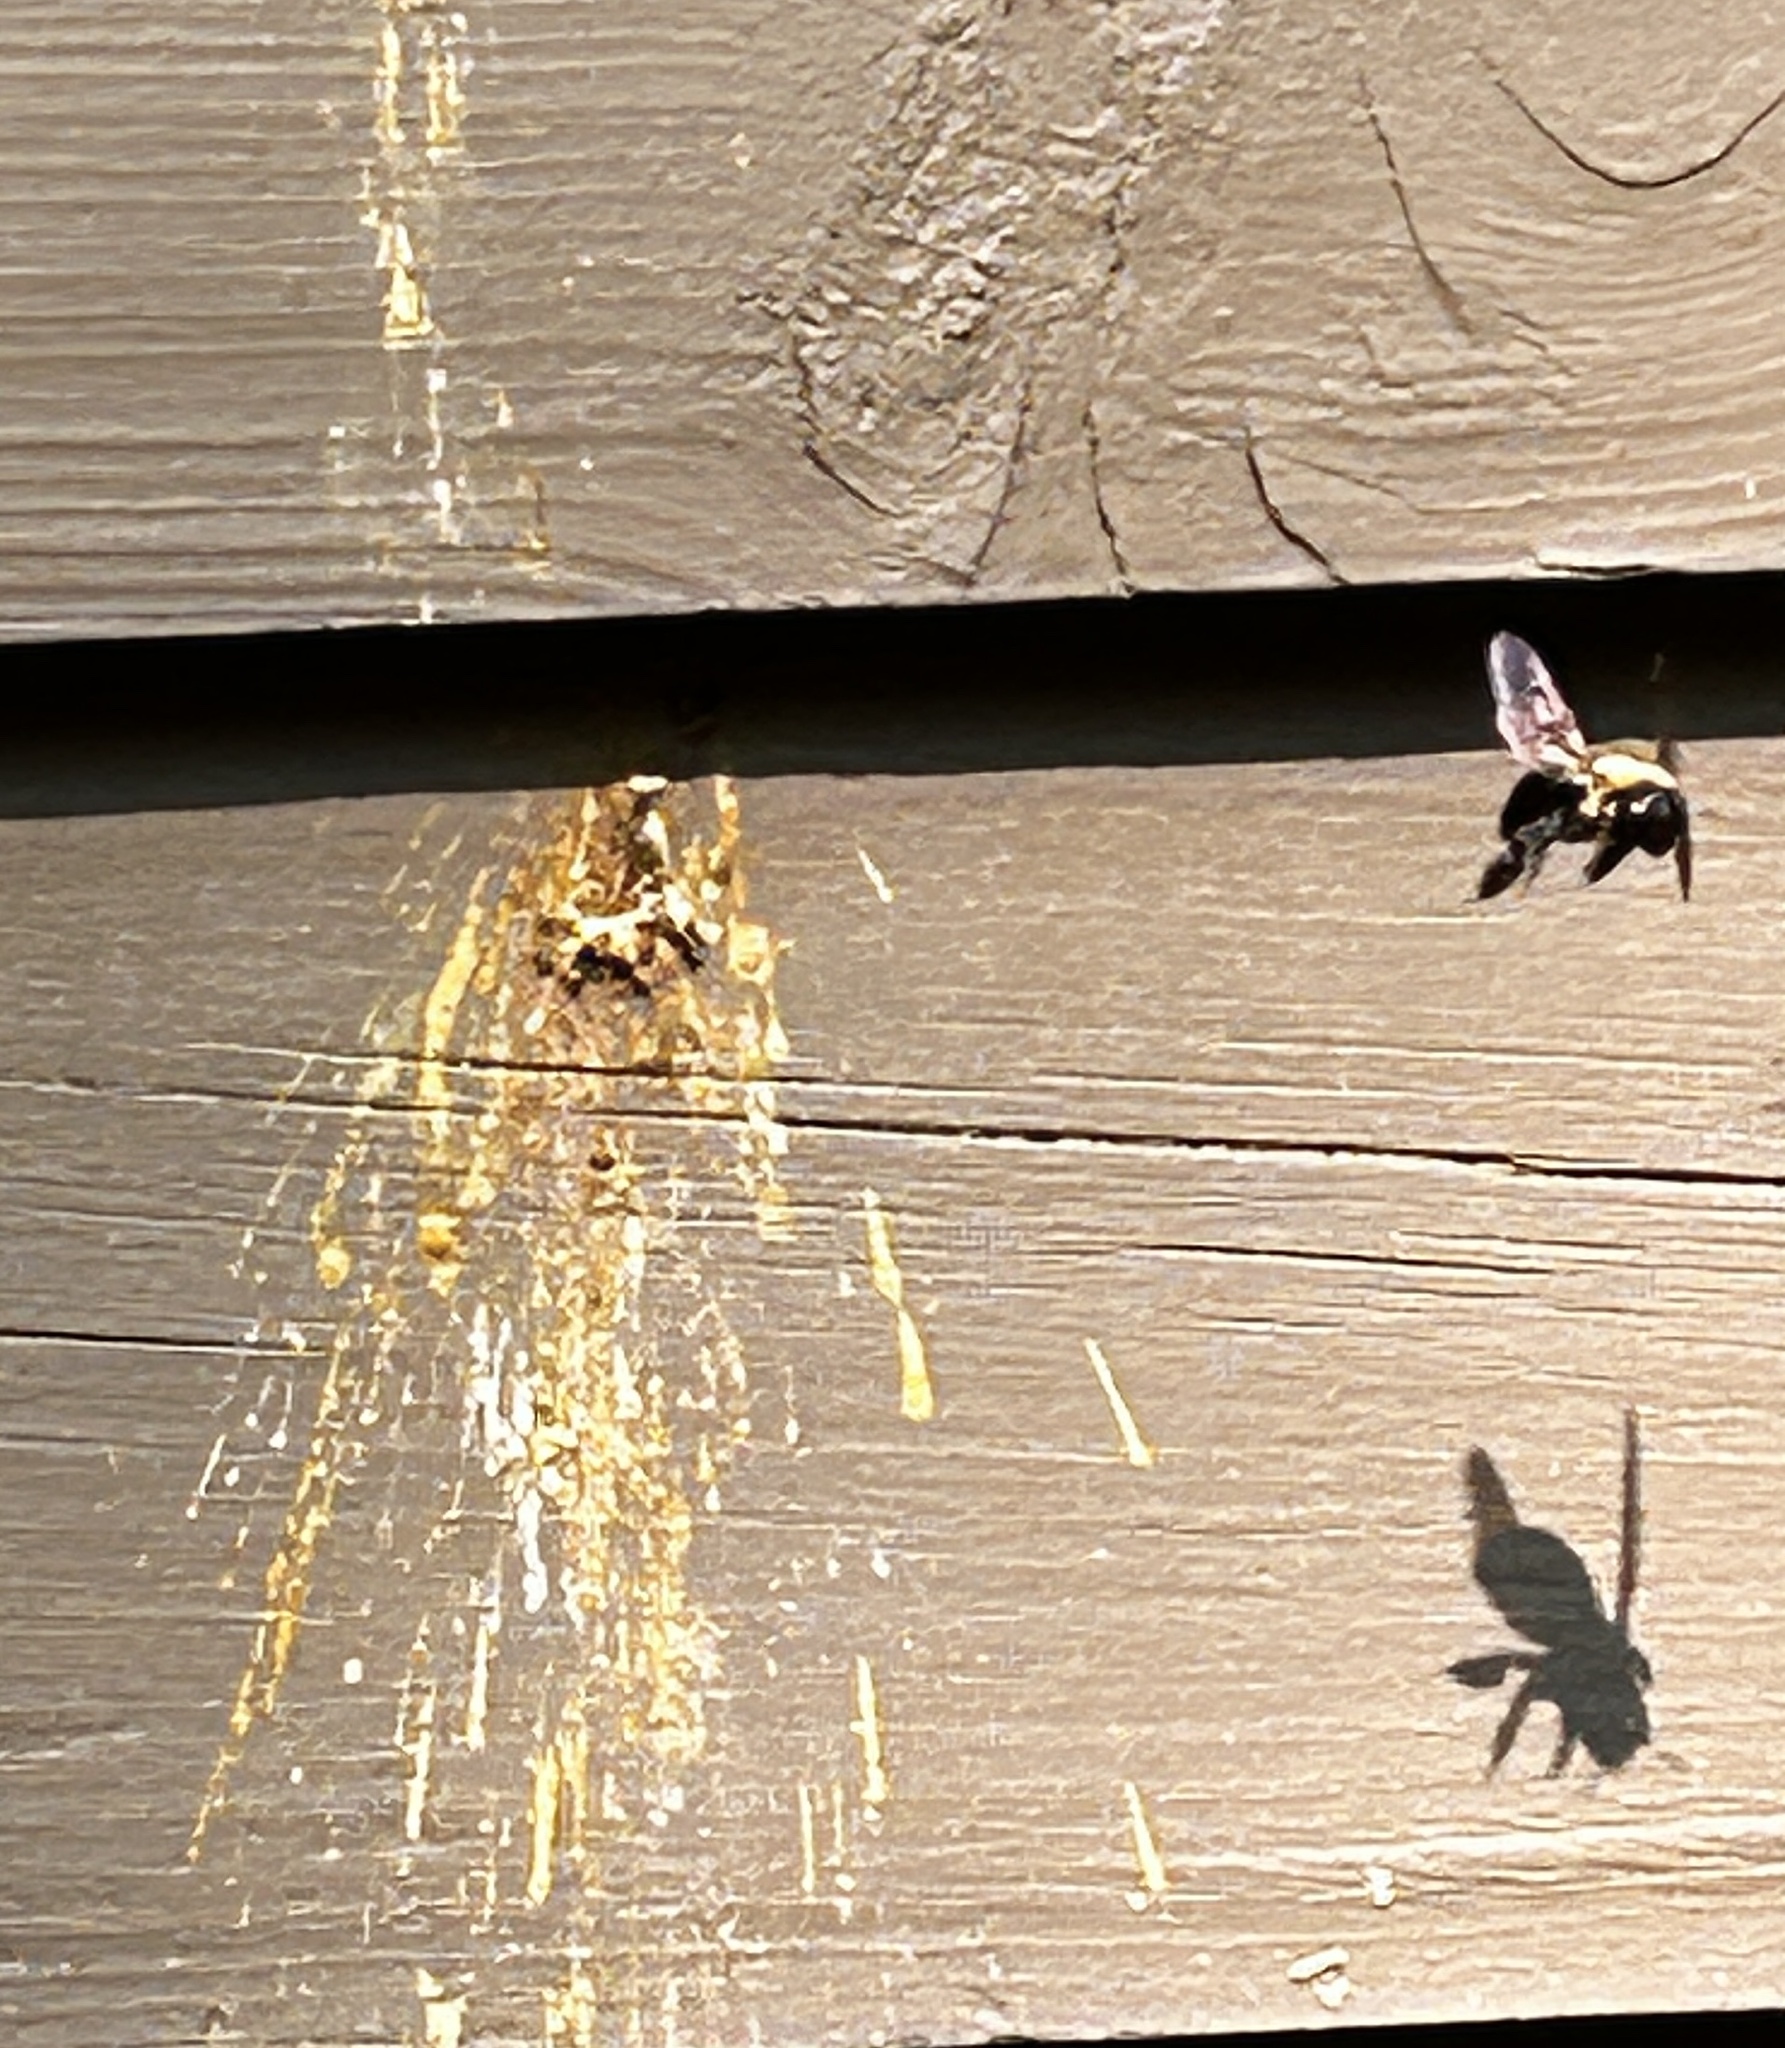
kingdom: Animalia
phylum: Arthropoda
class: Insecta
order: Hymenoptera
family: Apidae
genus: Xylocopa
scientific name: Xylocopa virginica
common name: Carpenter bee
